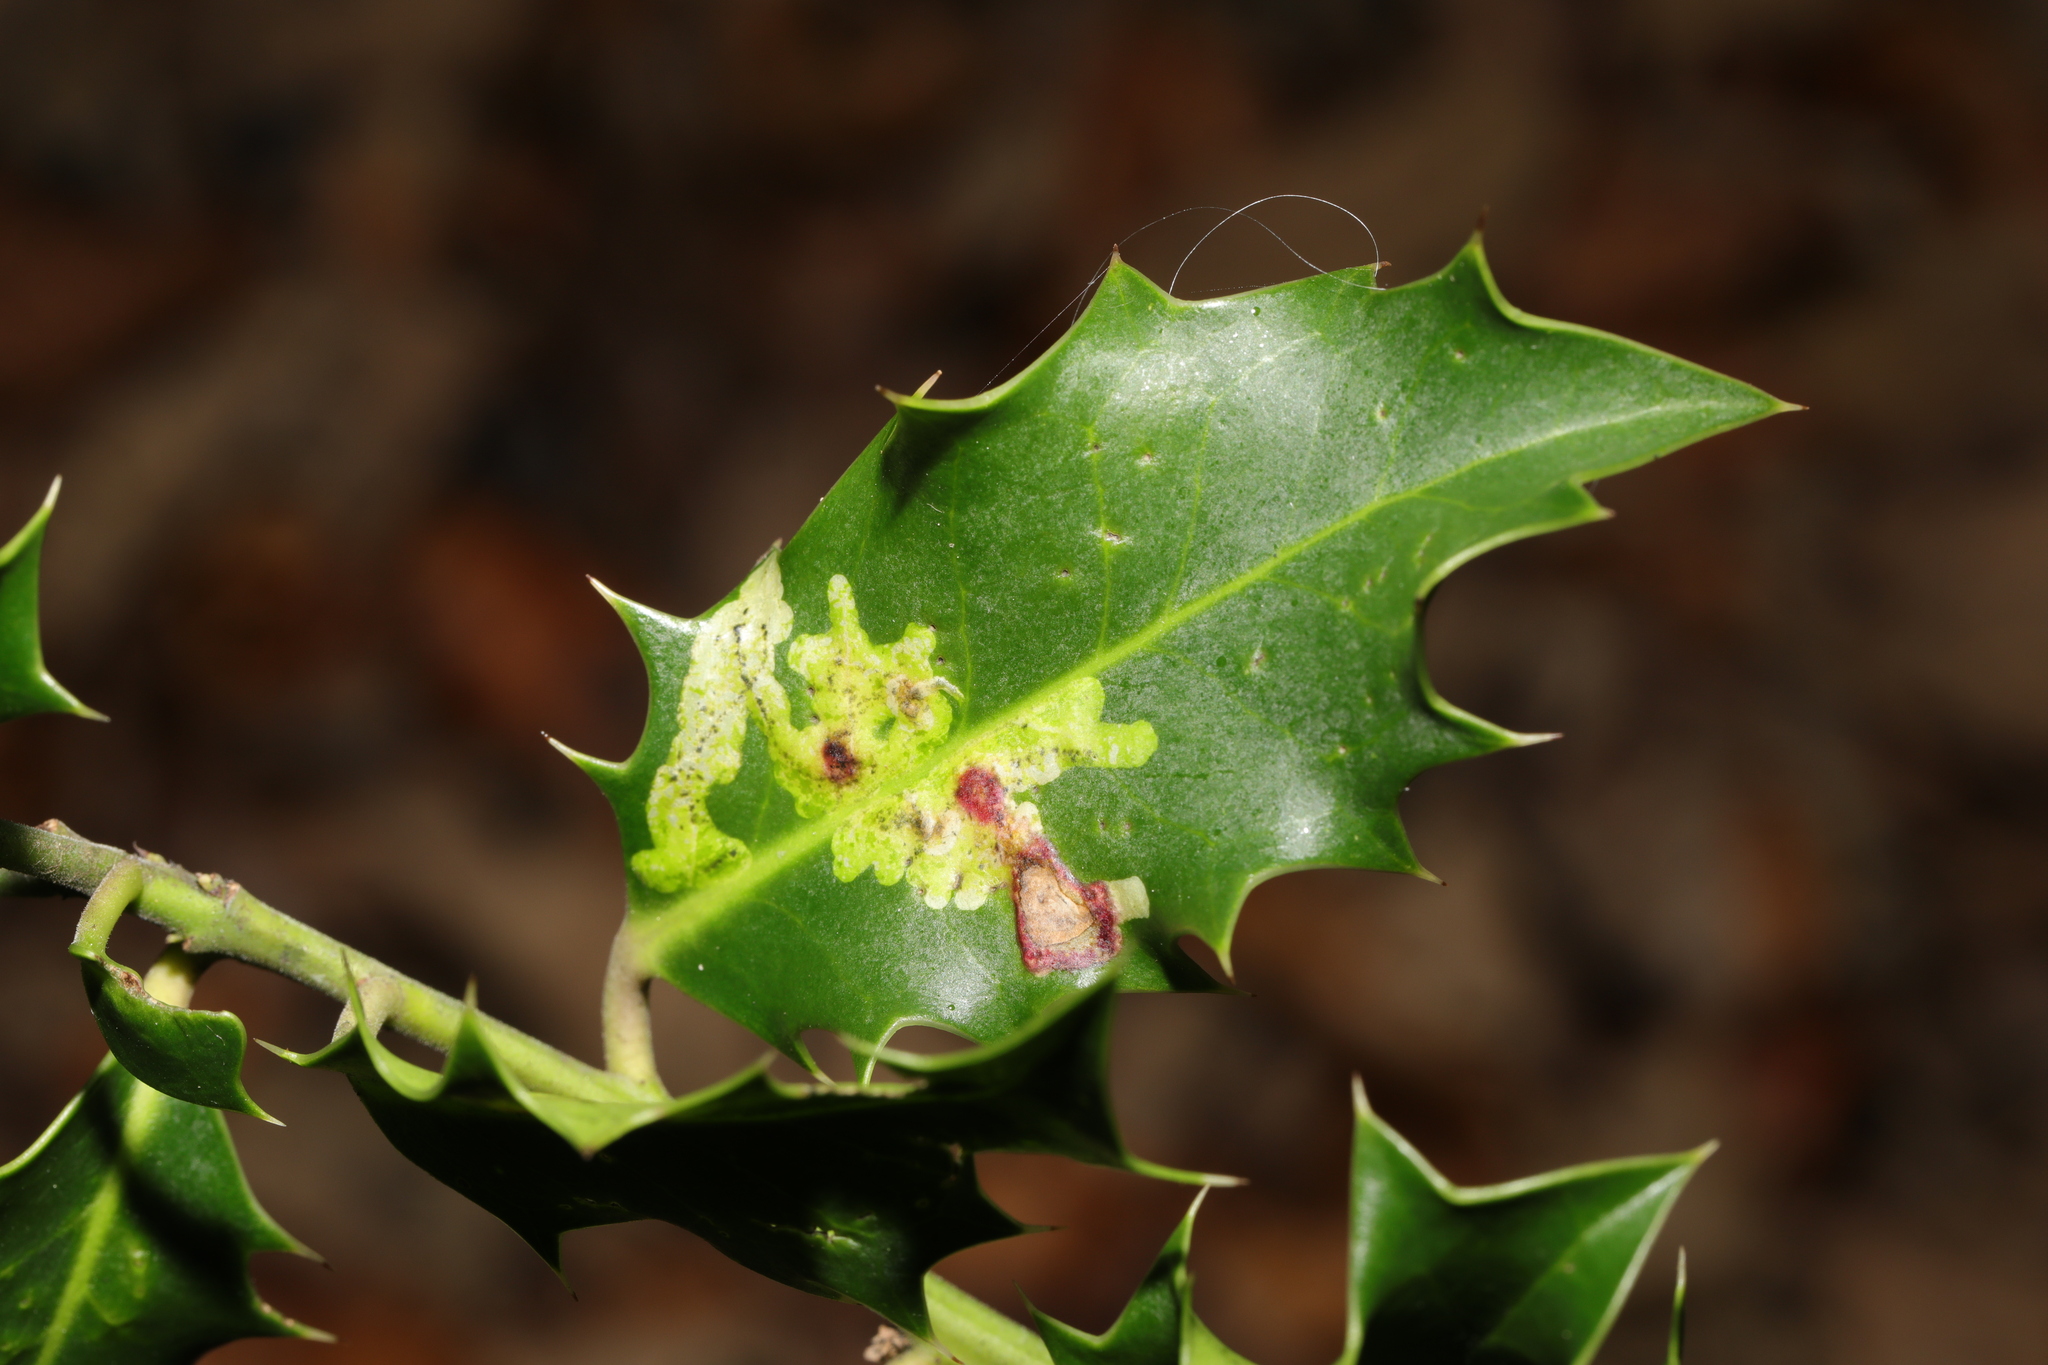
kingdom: Animalia
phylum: Arthropoda
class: Insecta
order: Diptera
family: Agromyzidae
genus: Phytomyza
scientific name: Phytomyza ilicis
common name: Holly leafminer
